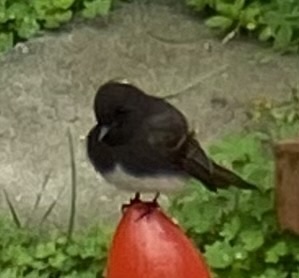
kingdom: Animalia
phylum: Chordata
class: Aves
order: Passeriformes
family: Tyrannidae
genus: Sayornis
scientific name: Sayornis nigricans
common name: Black phoebe
